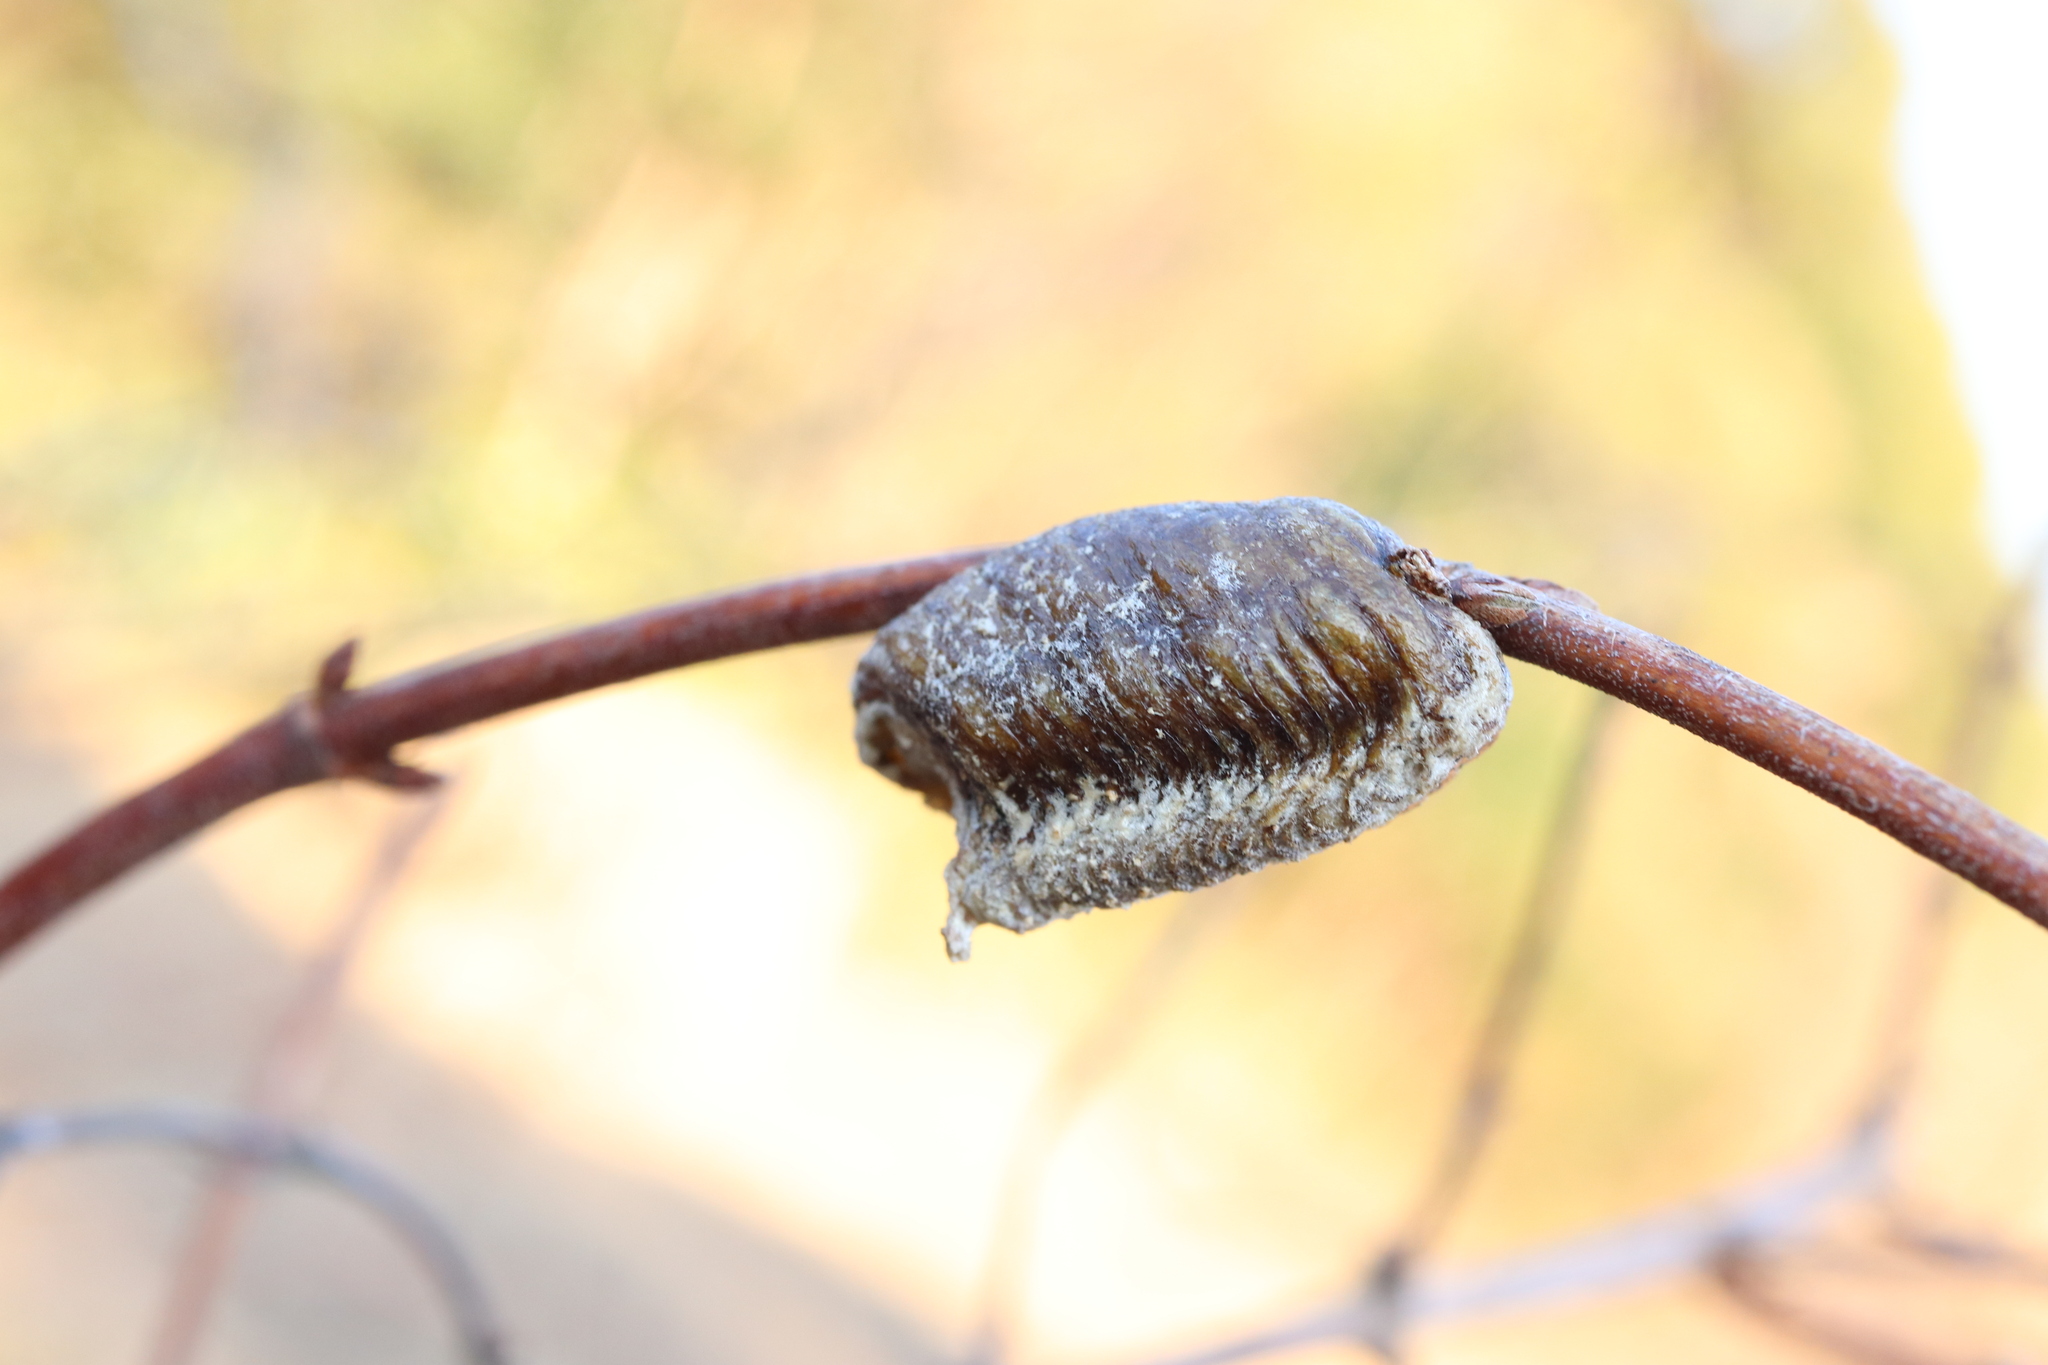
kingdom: Animalia
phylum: Arthropoda
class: Insecta
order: Mantodea
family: Mantidae
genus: Hierodula
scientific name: Hierodula patellifera
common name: Asian mantis
